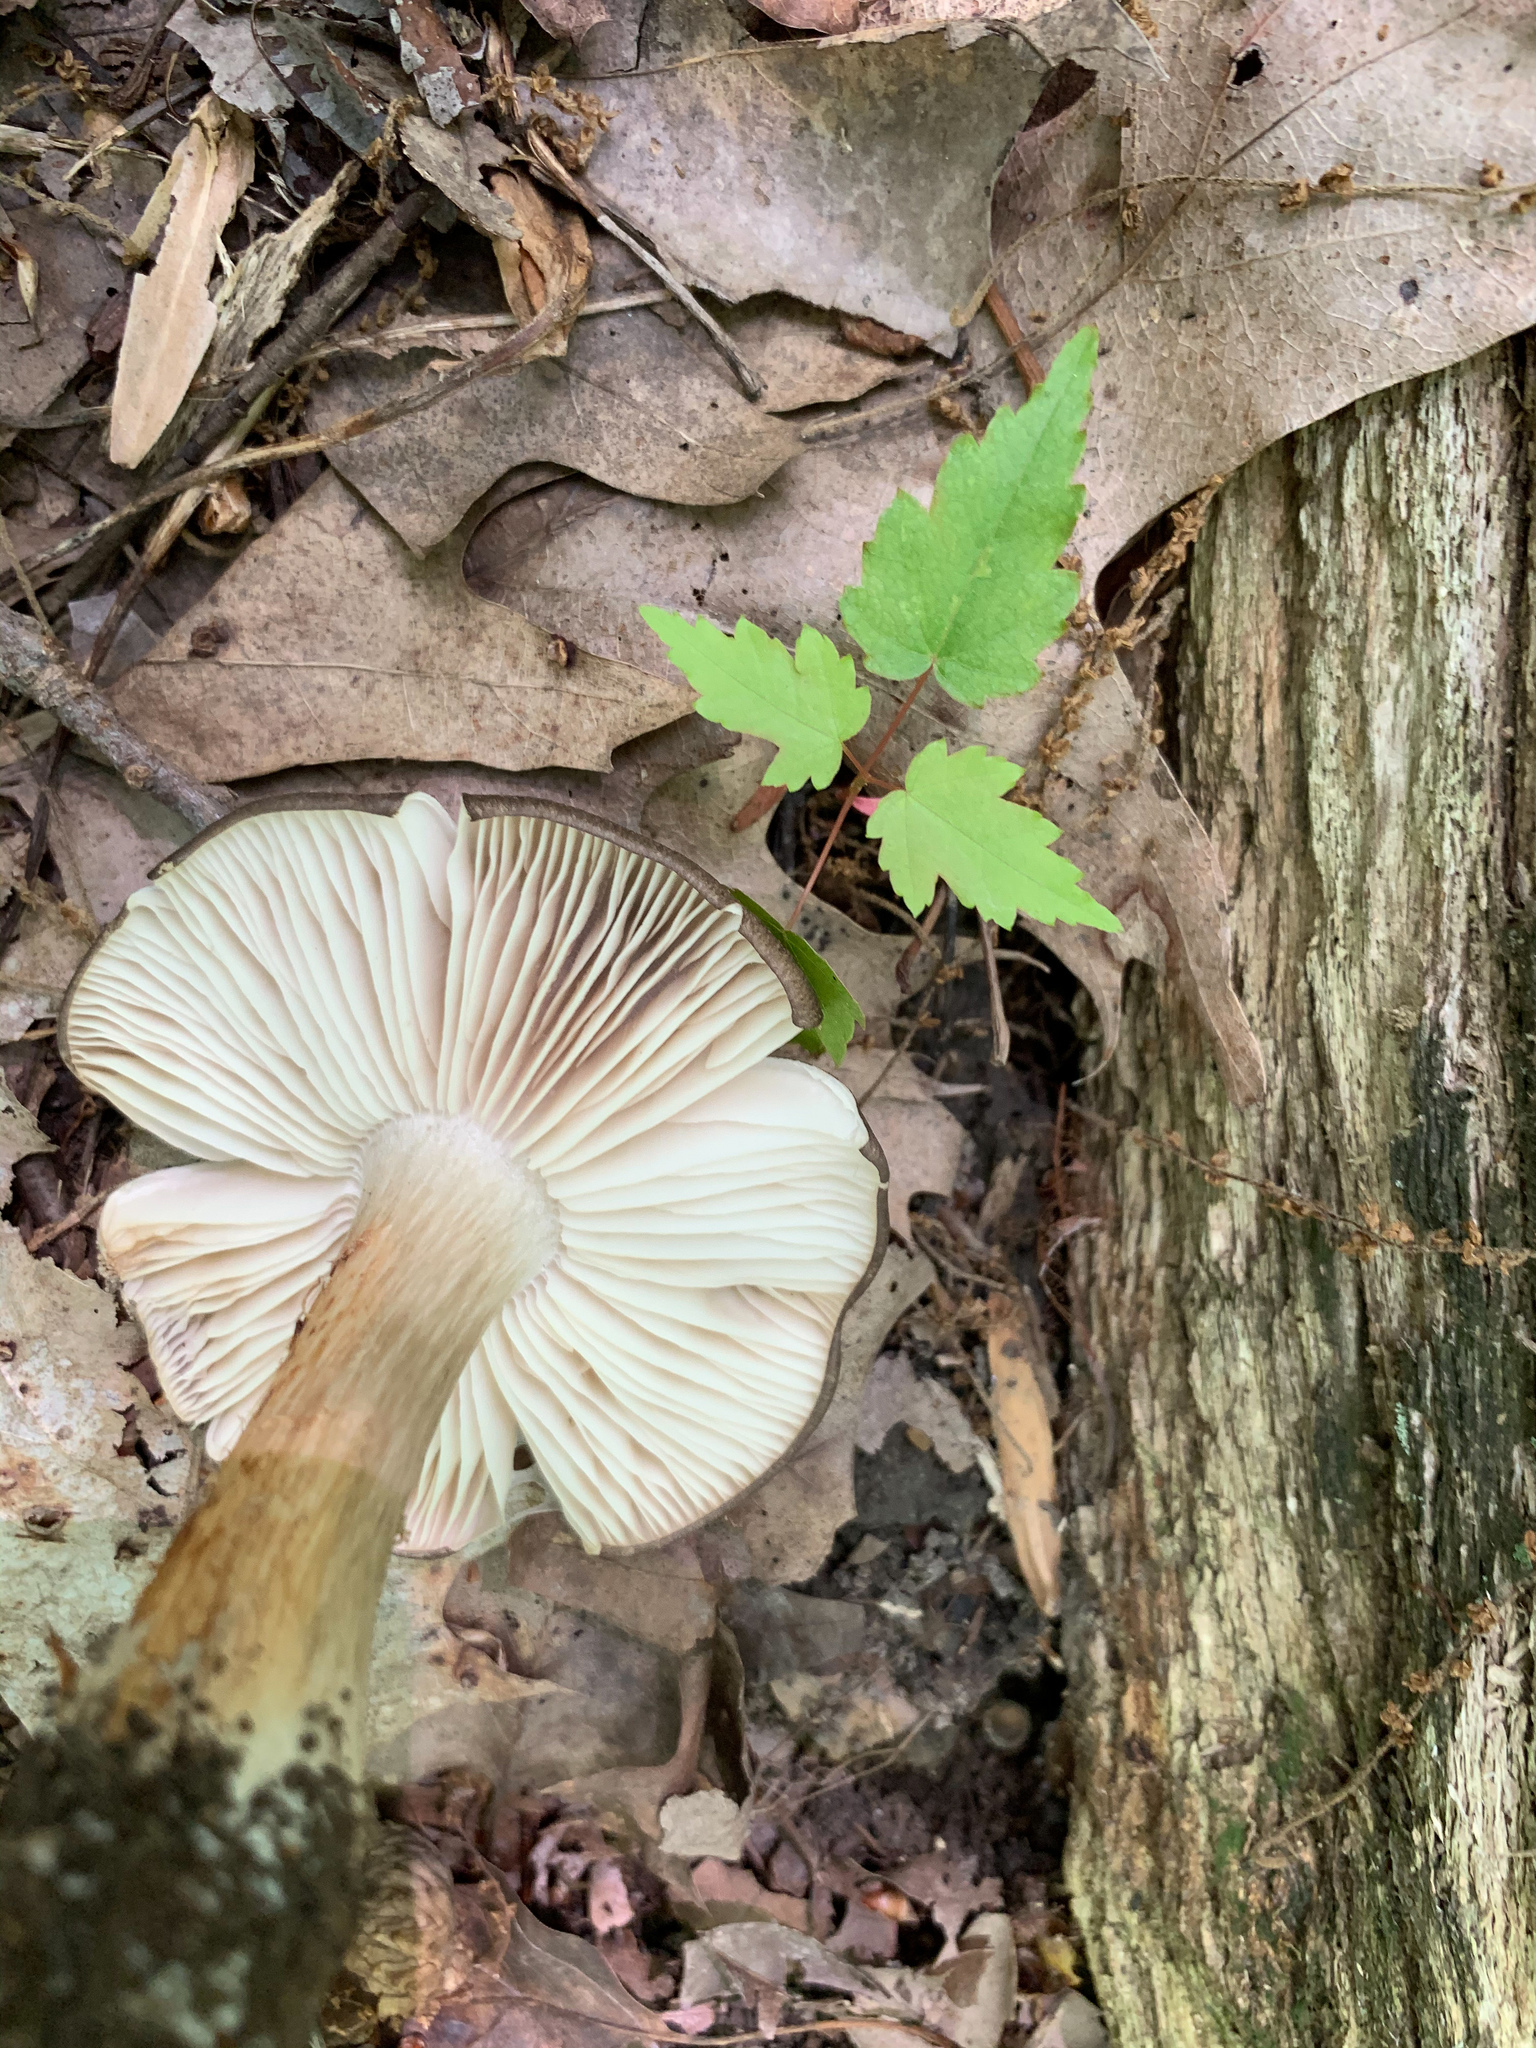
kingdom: Fungi
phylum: Basidiomycota
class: Agaricomycetes
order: Agaricales
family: Tricholomataceae
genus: Megacollybia
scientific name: Megacollybia rodmanii
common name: Eastern american platterful mushroom
